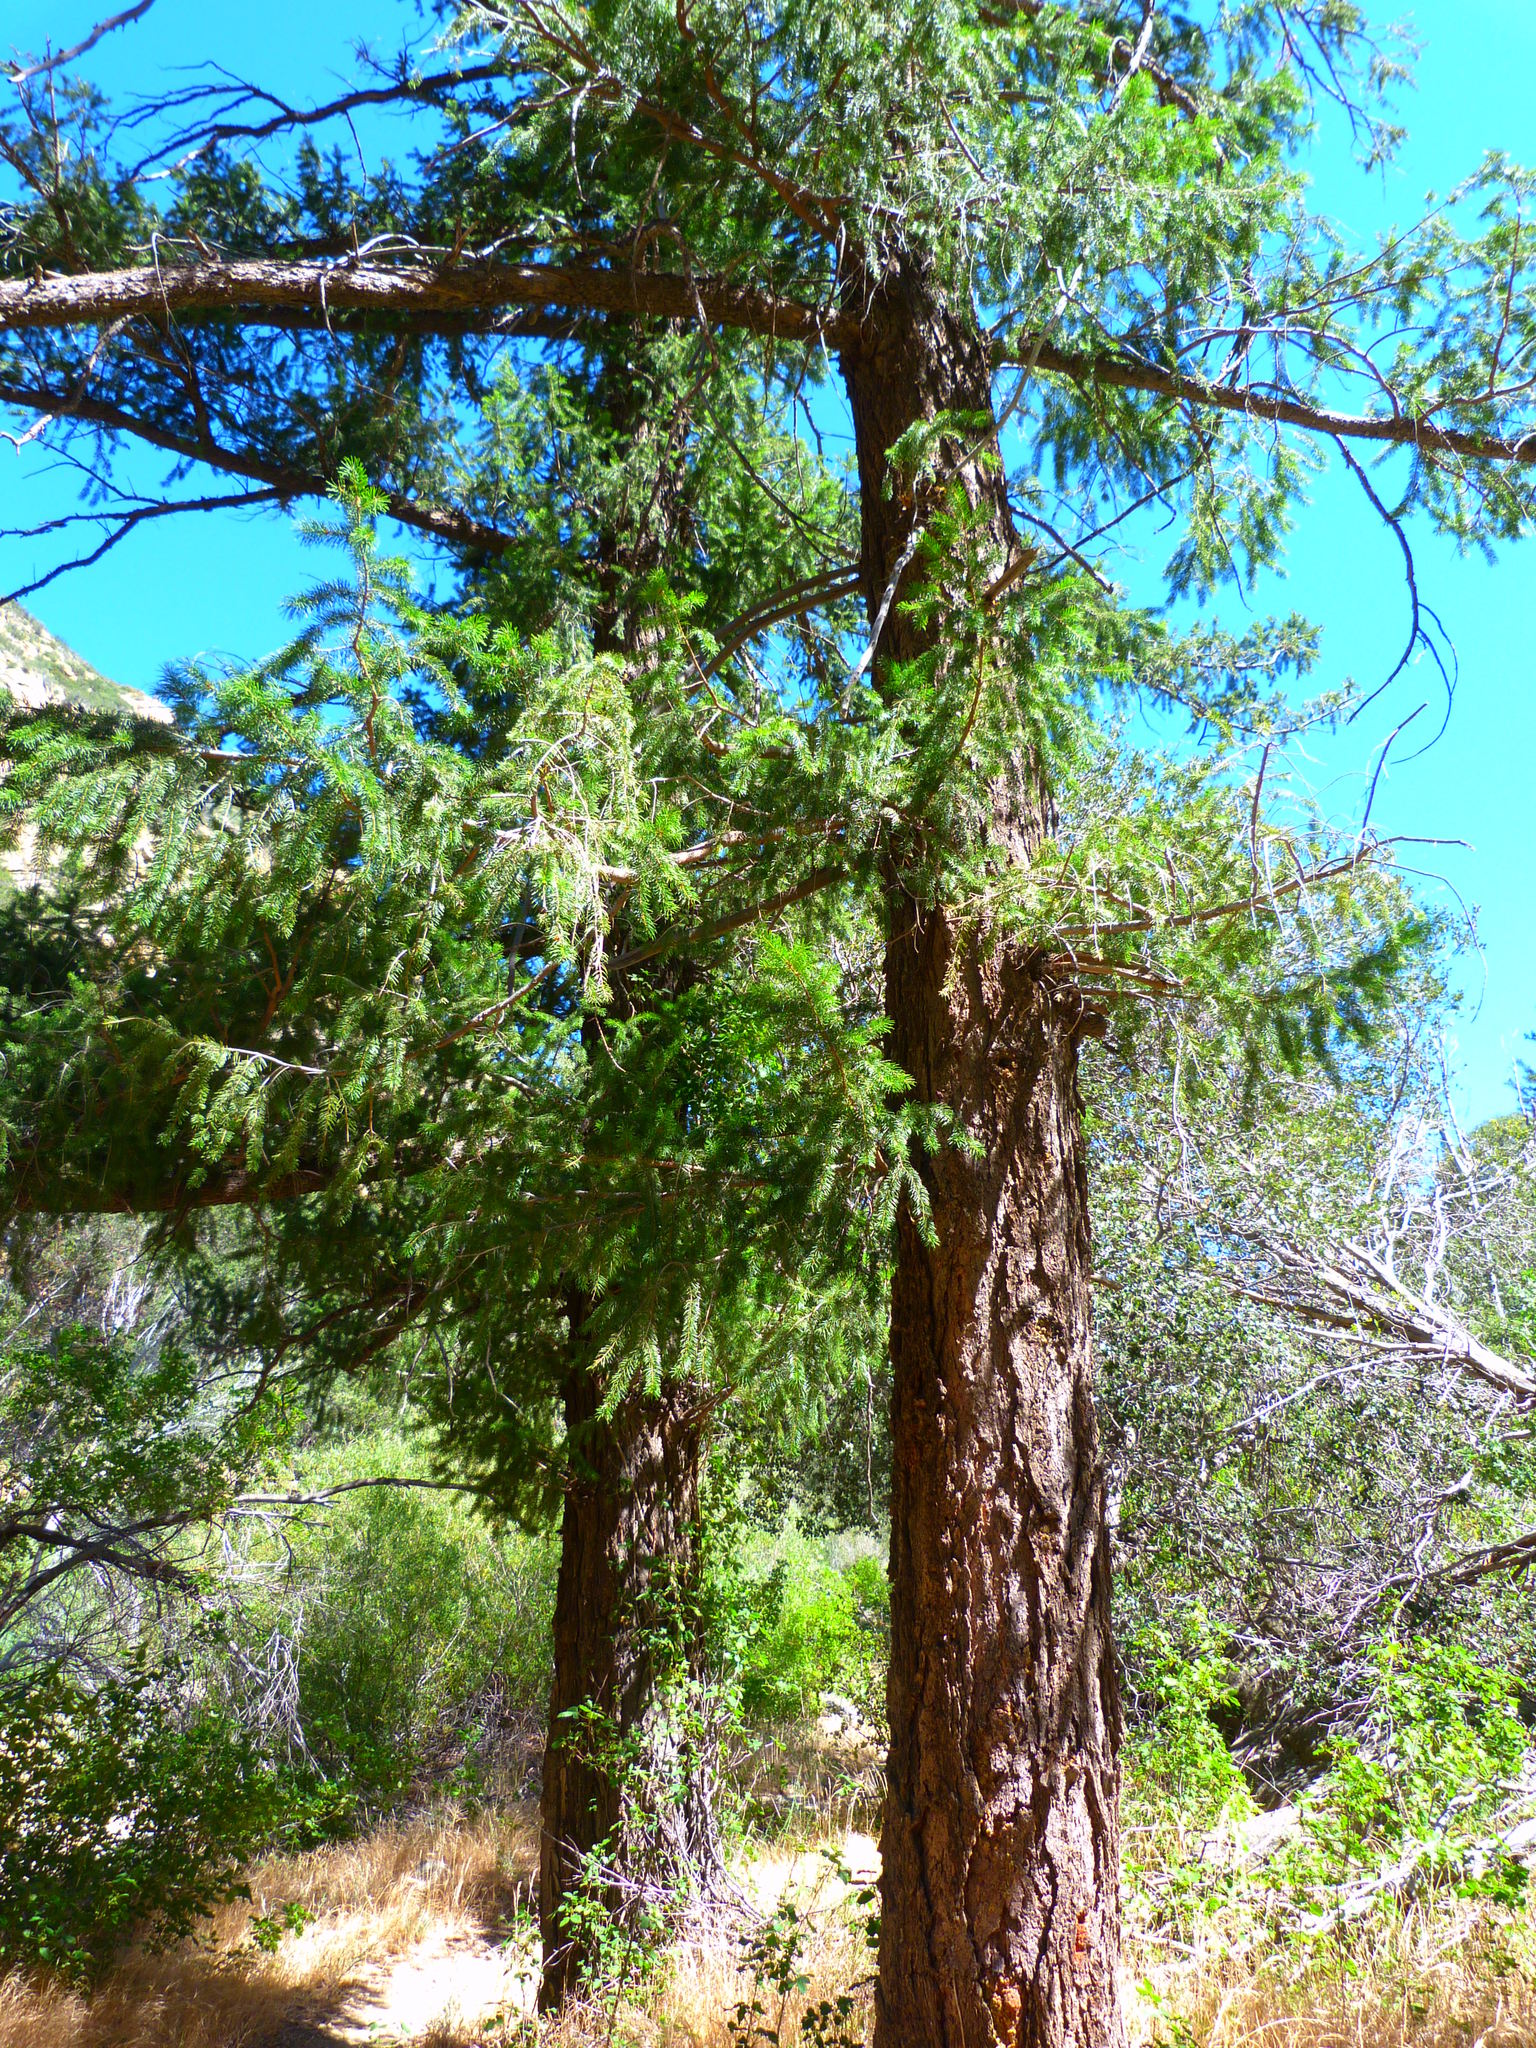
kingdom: Plantae
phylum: Tracheophyta
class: Pinopsida
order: Pinales
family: Pinaceae
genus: Pseudotsuga
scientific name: Pseudotsuga macrocarpa
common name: Big-cone douglas-fir
